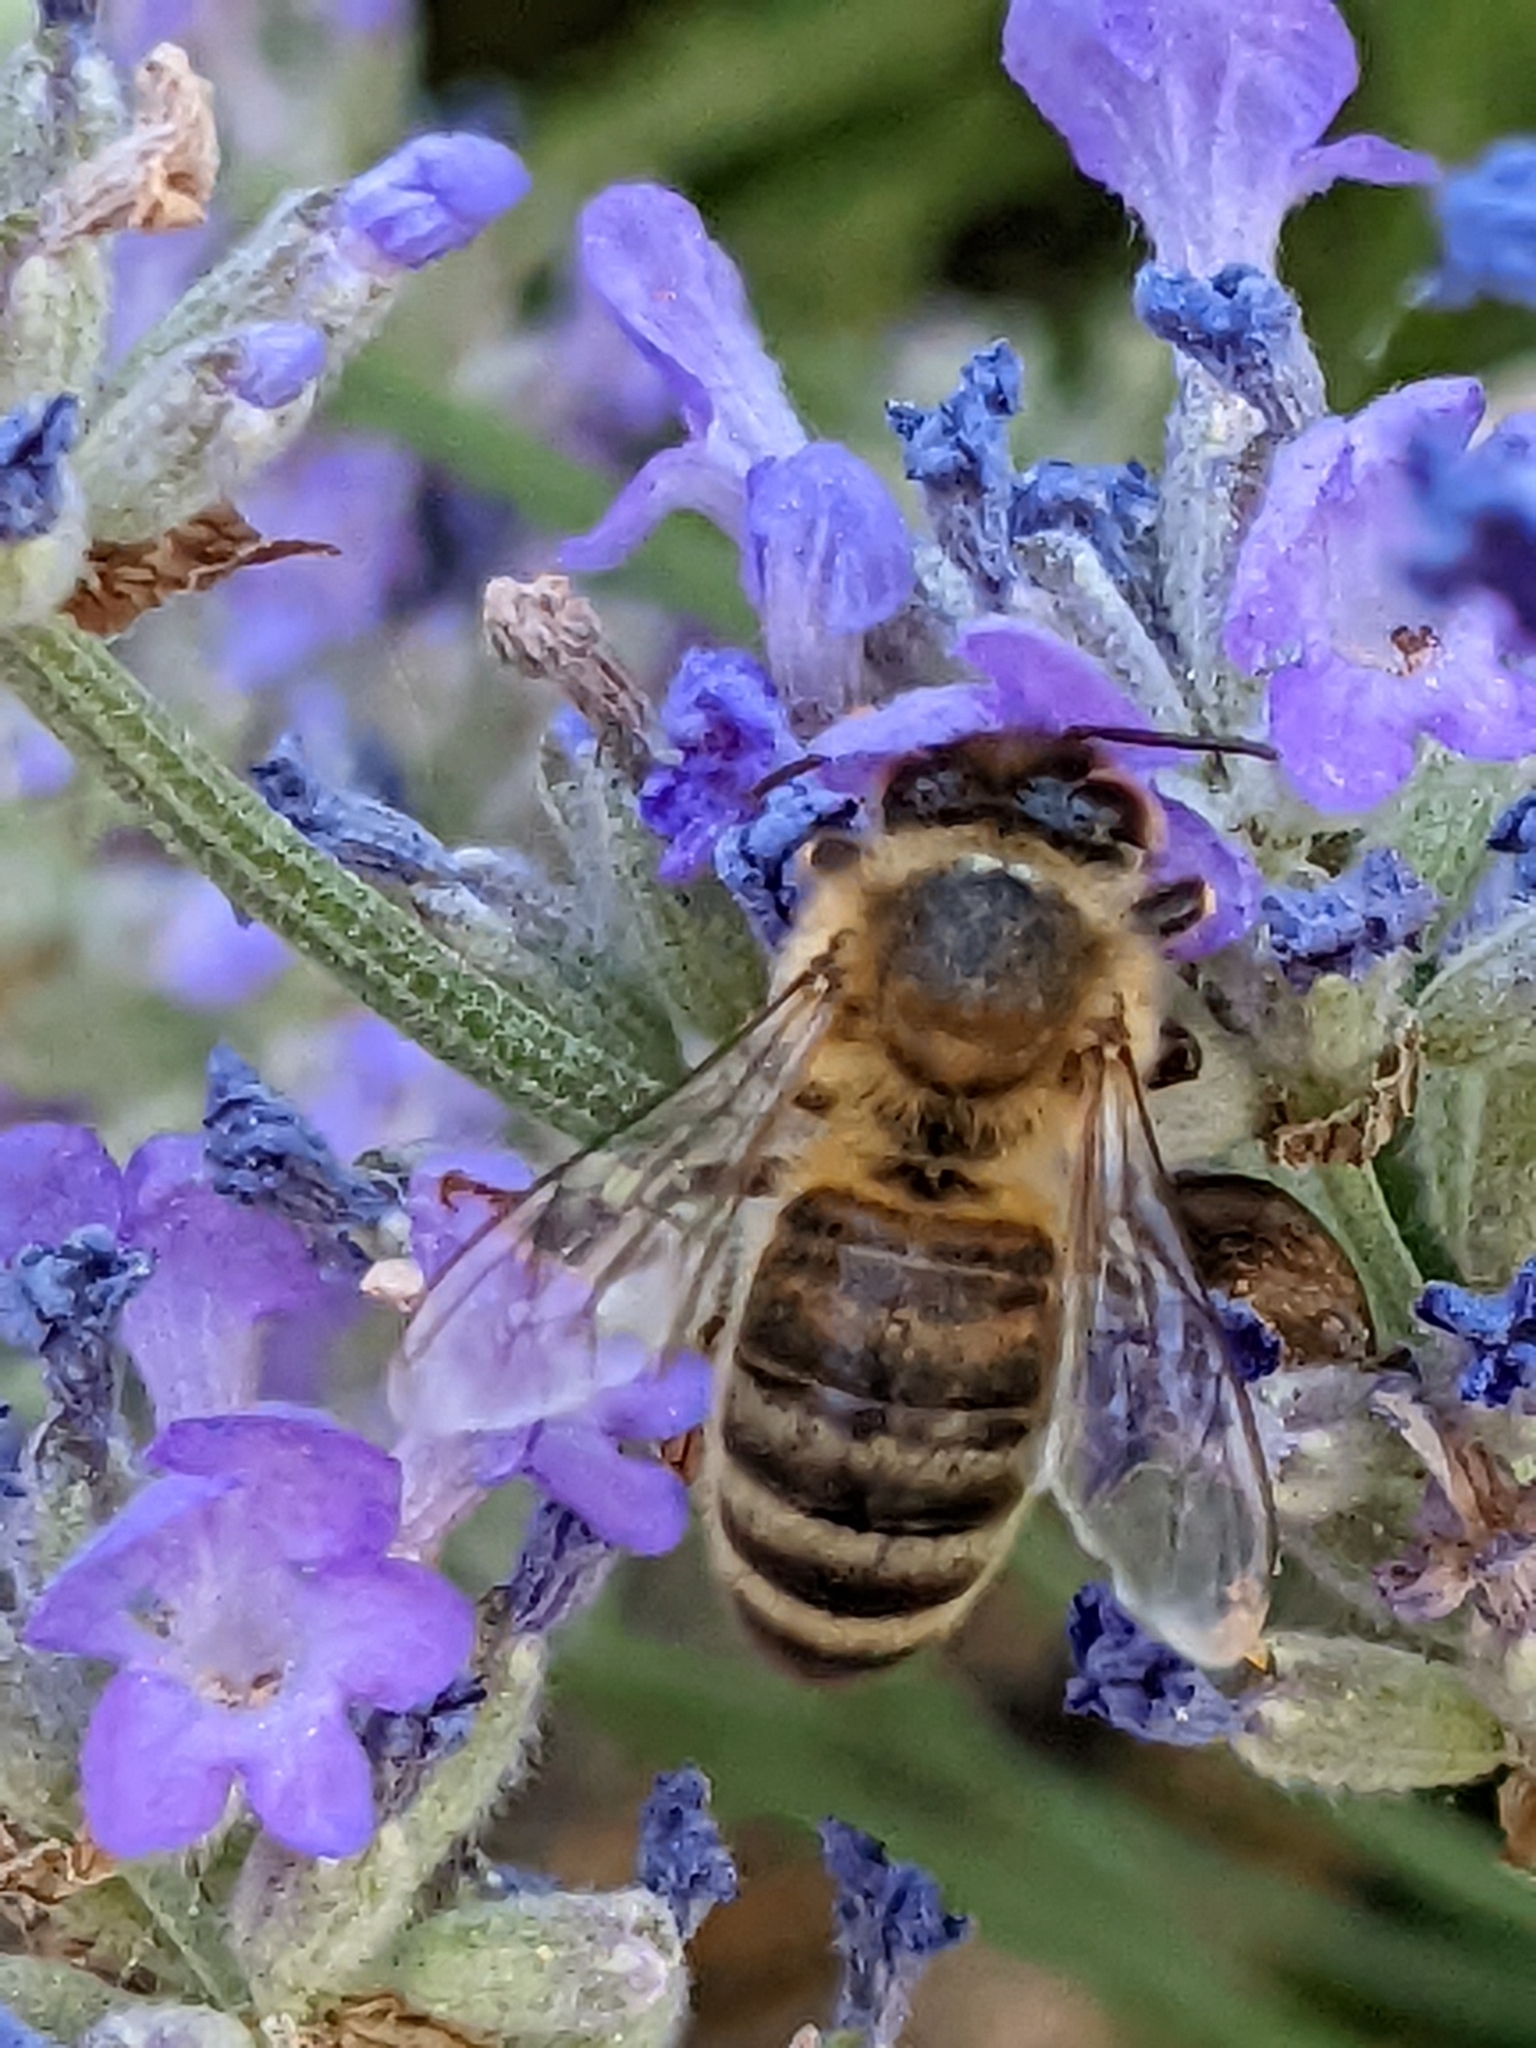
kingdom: Animalia
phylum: Arthropoda
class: Insecta
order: Hymenoptera
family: Apidae
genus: Apis
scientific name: Apis mellifera
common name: Honey bee
